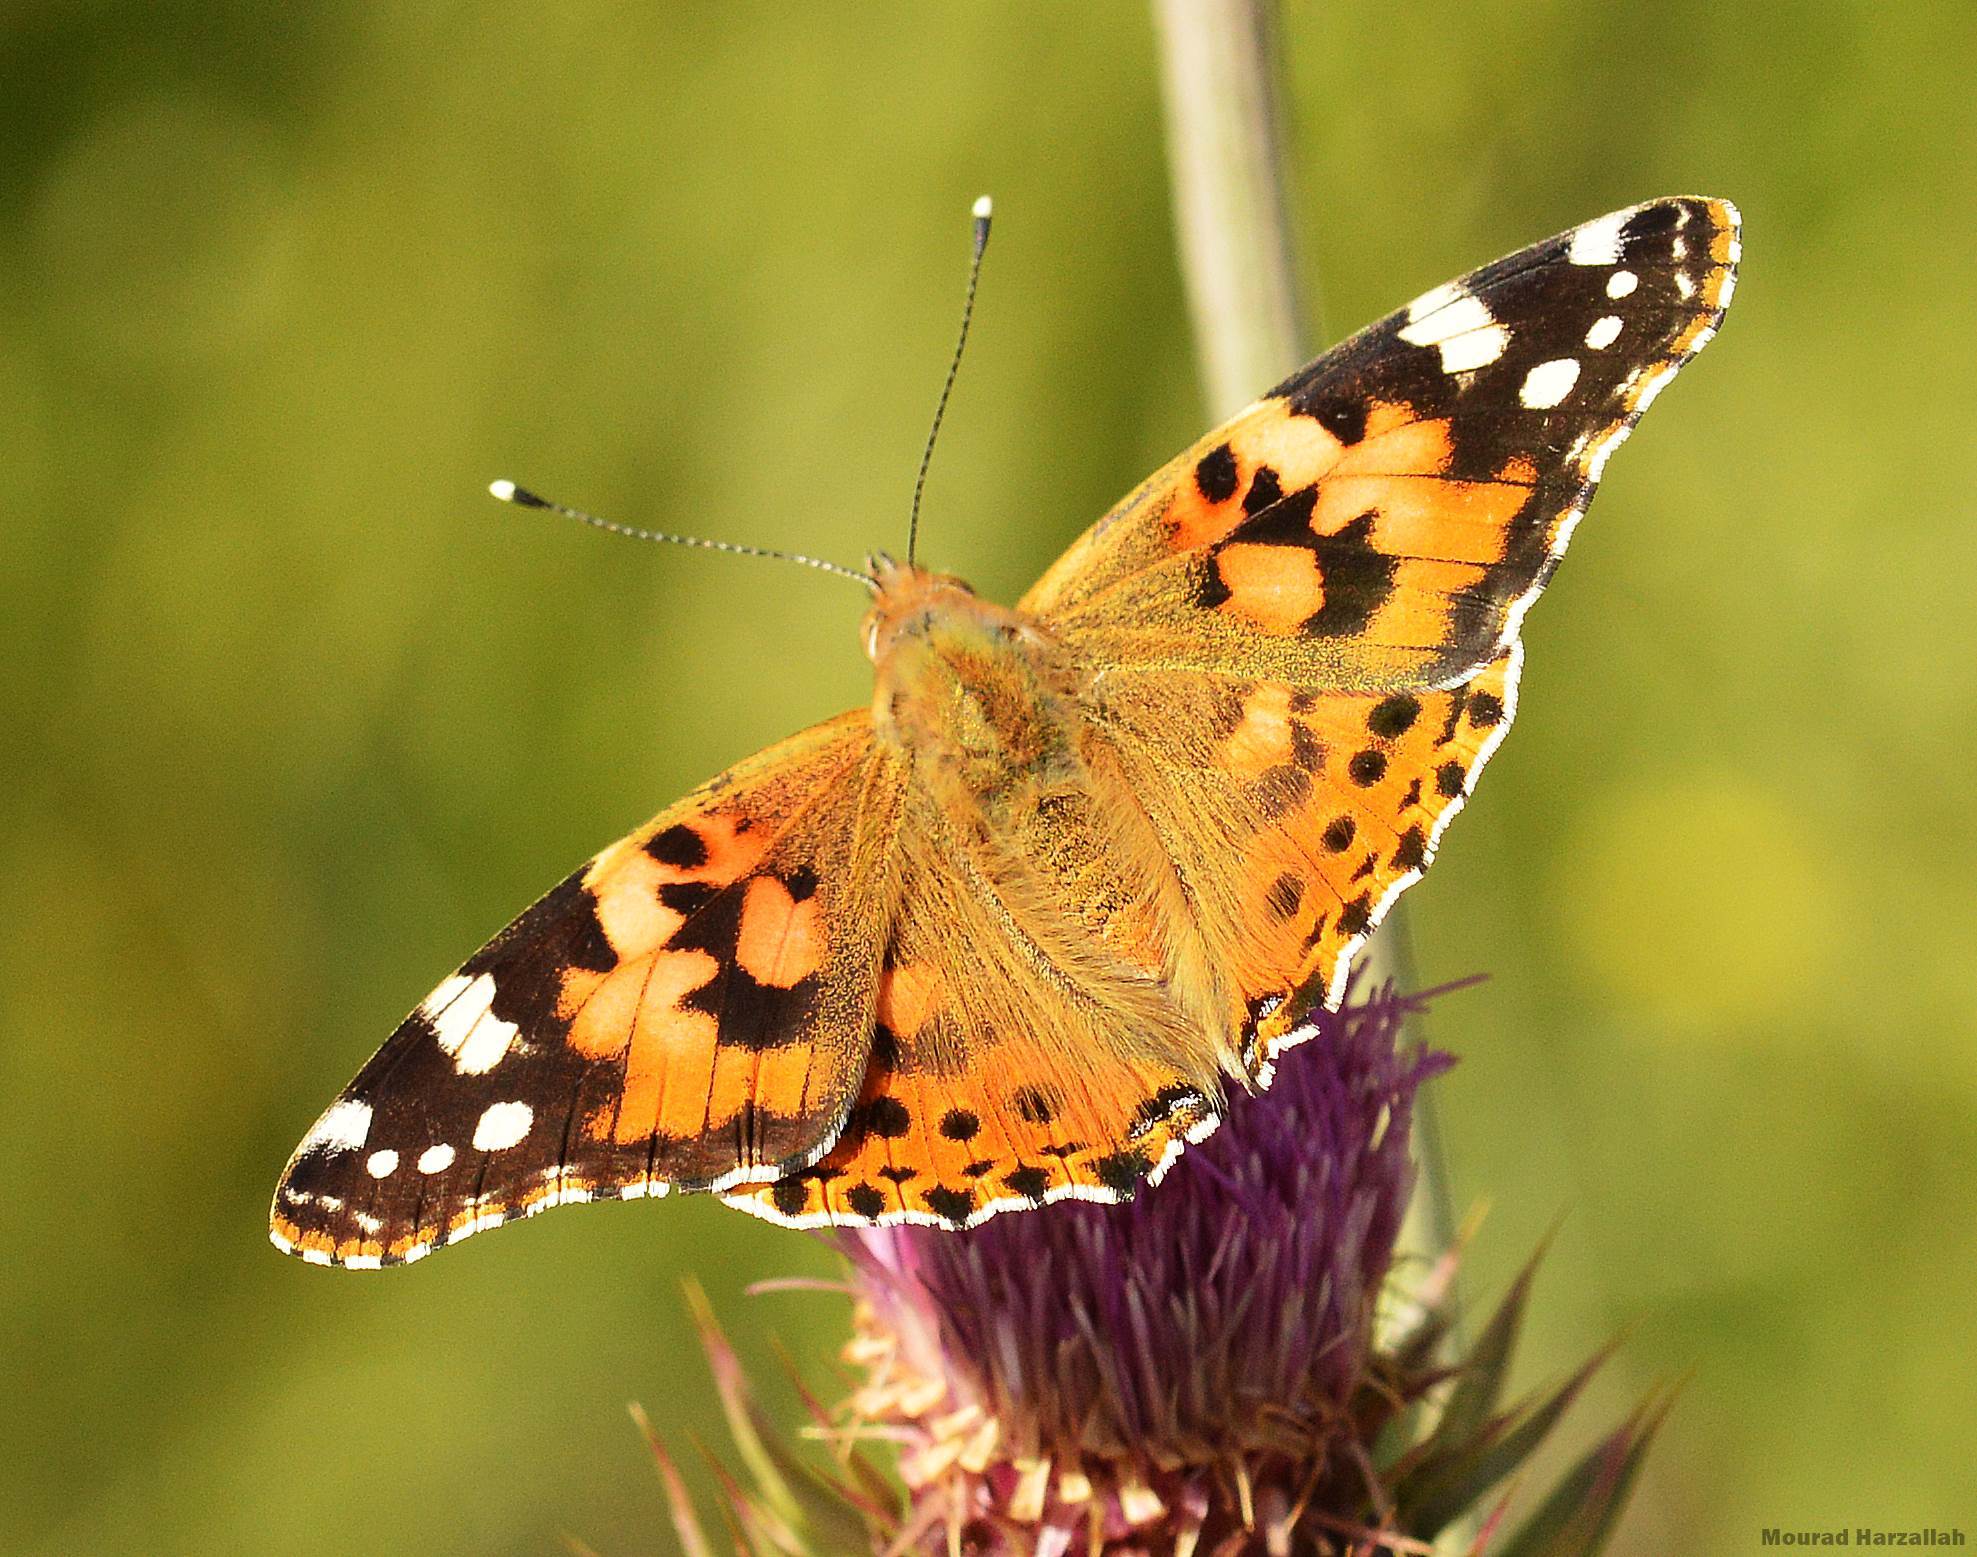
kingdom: Animalia
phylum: Arthropoda
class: Insecta
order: Lepidoptera
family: Nymphalidae
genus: Vanessa
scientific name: Vanessa cardui
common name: Painted lady
